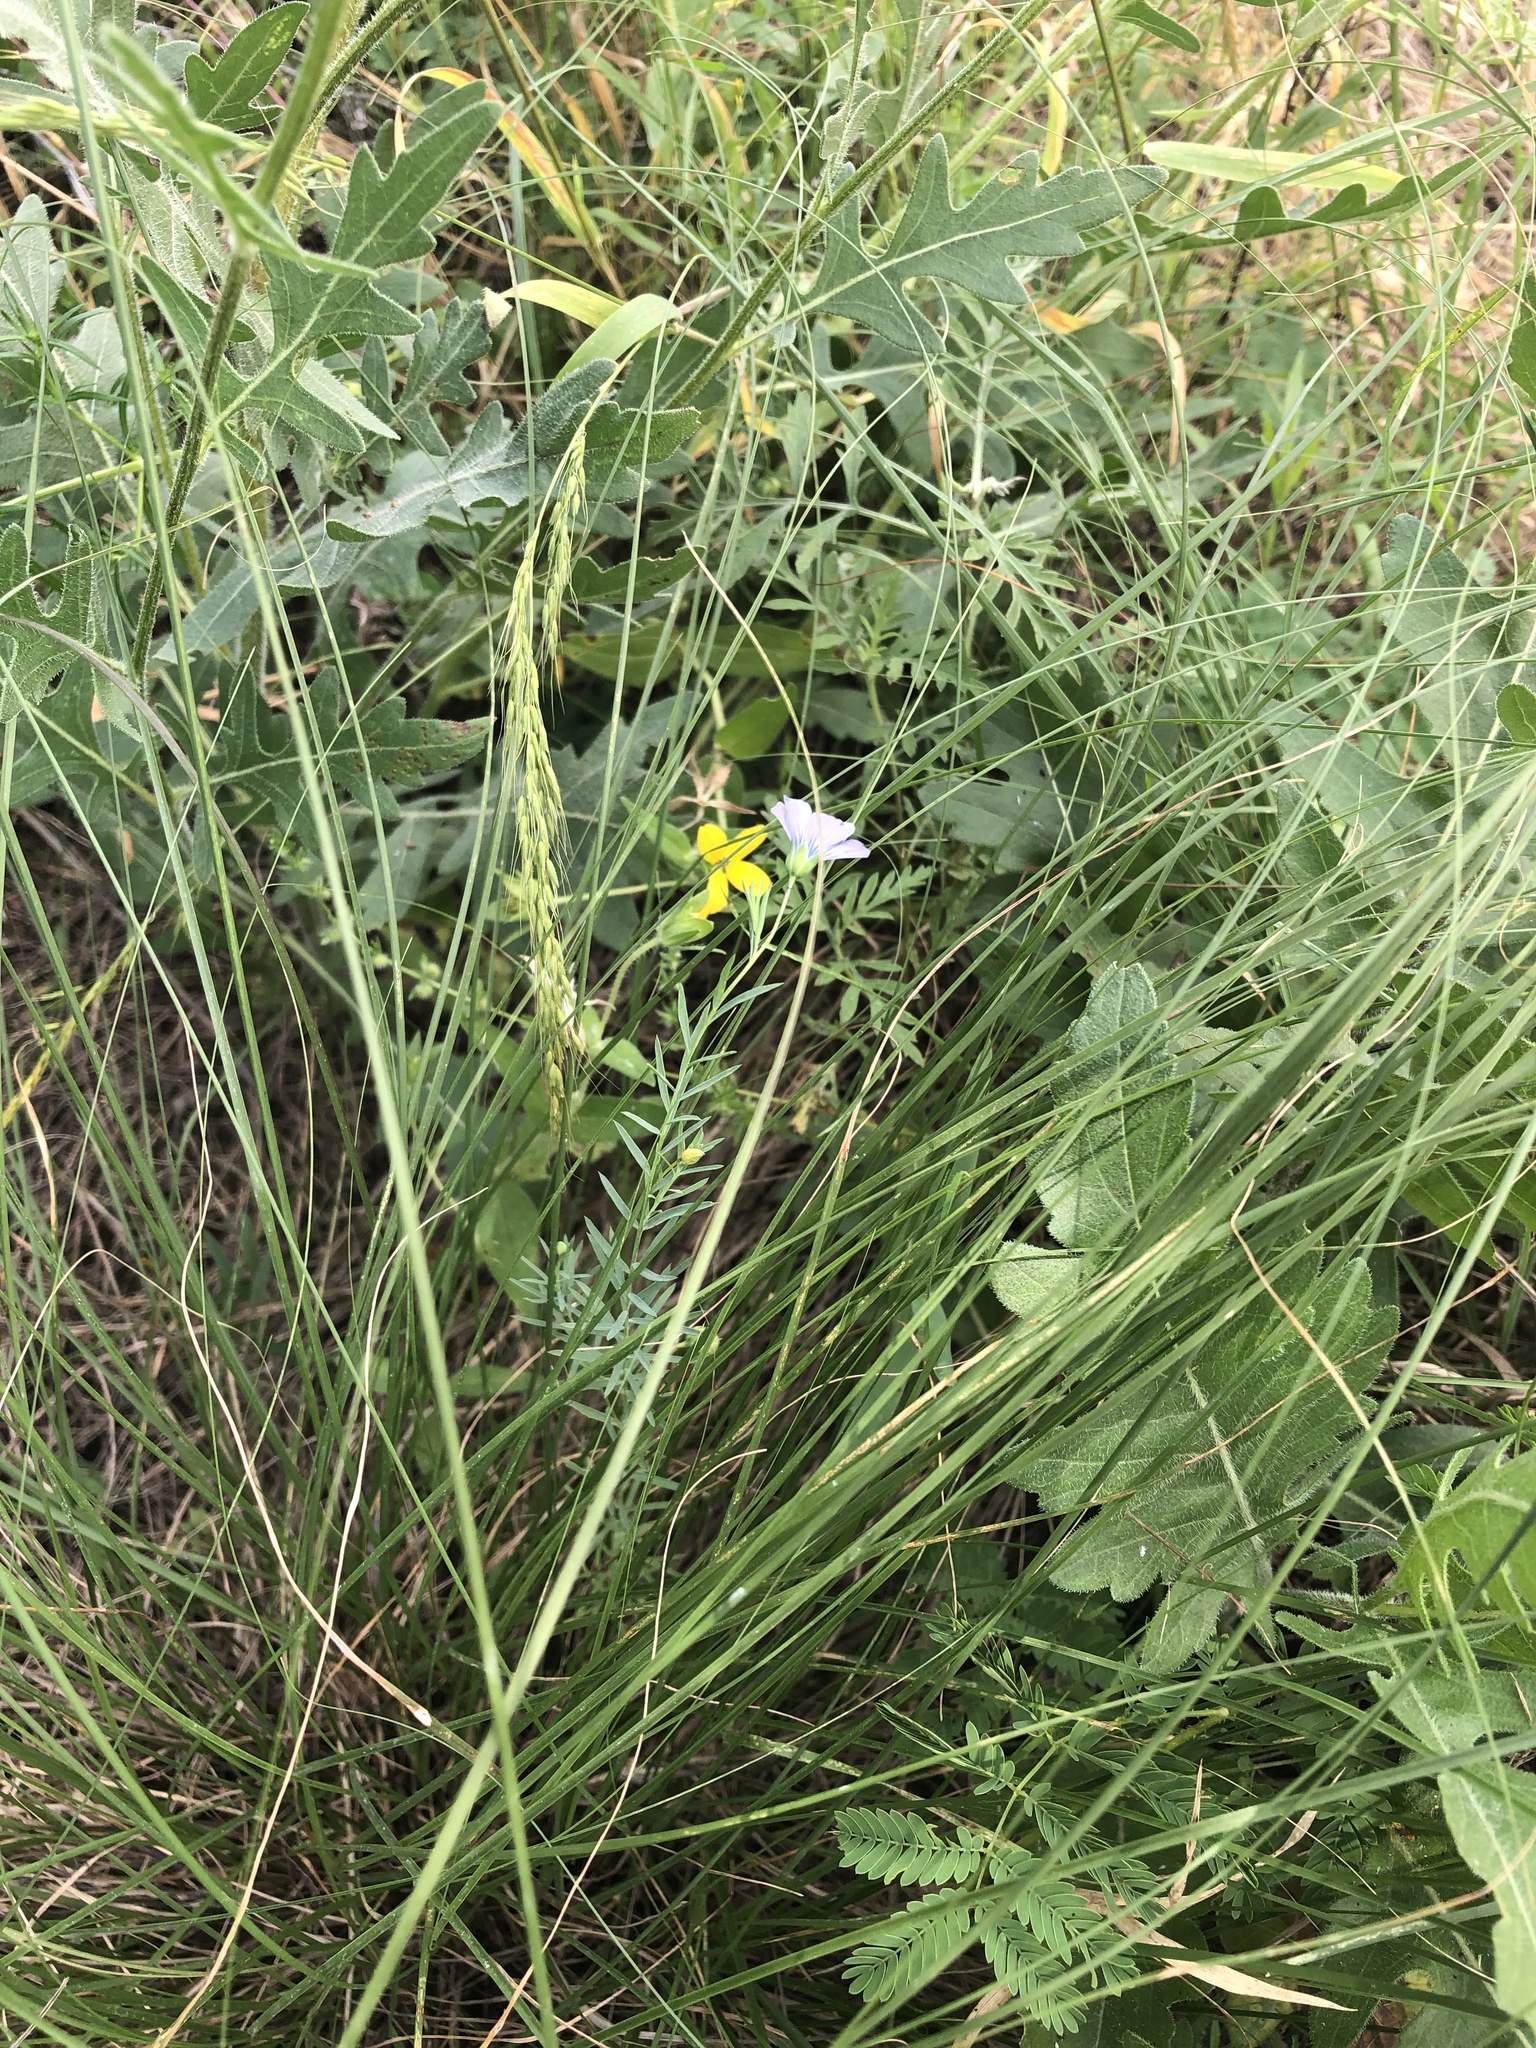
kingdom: Plantae
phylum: Tracheophyta
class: Magnoliopsida
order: Malpighiales
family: Linaceae
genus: Linum
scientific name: Linum pratense
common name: Norton's flax
